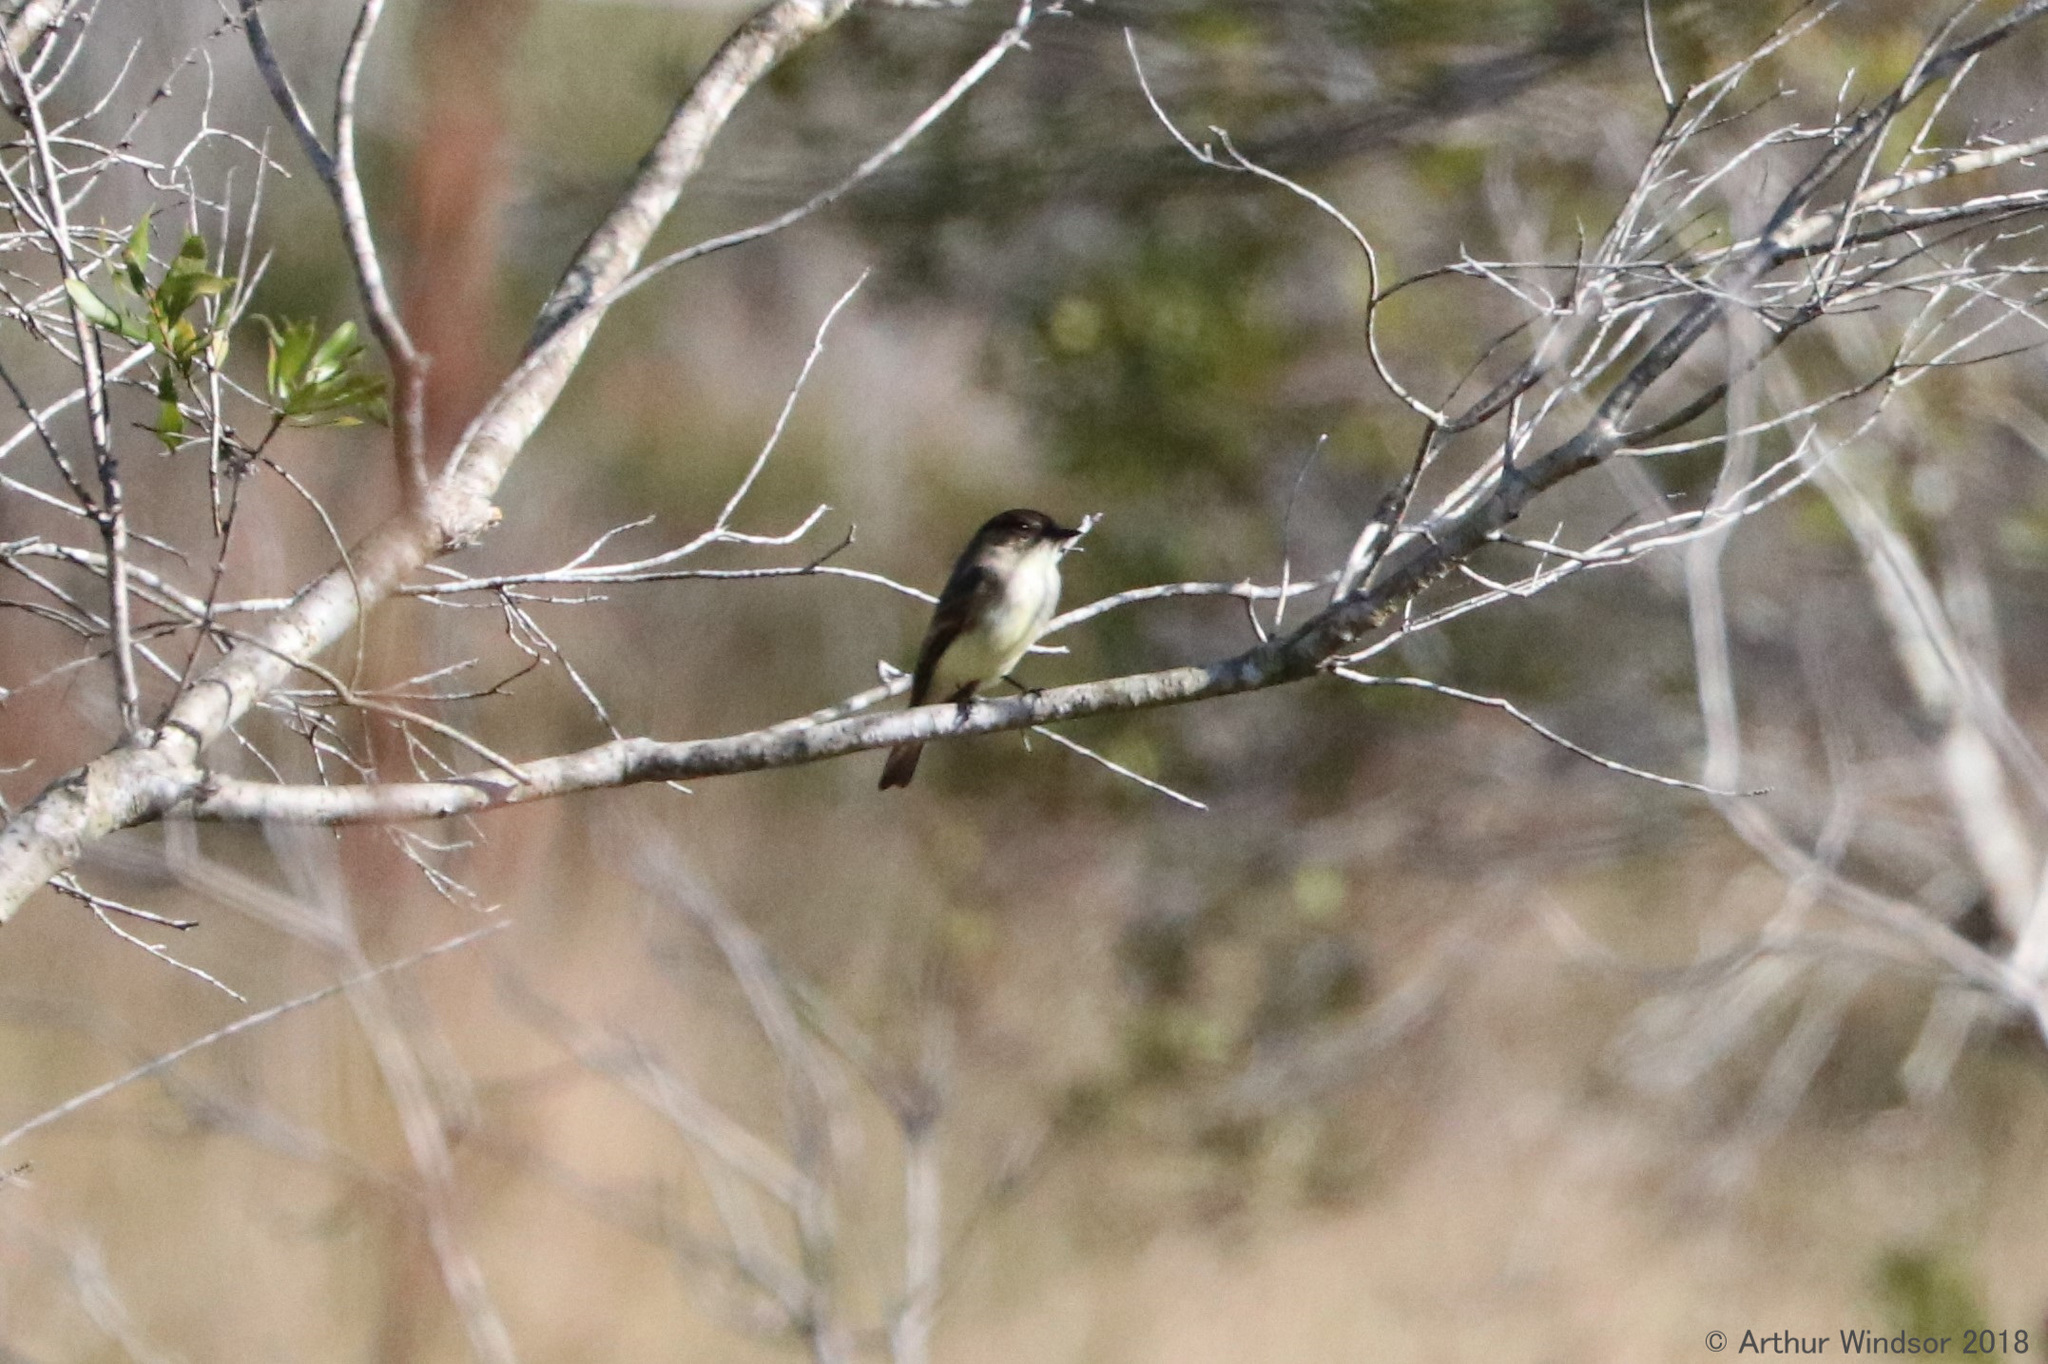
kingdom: Animalia
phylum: Chordata
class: Aves
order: Passeriformes
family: Tyrannidae
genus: Sayornis
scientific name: Sayornis phoebe
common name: Eastern phoebe
